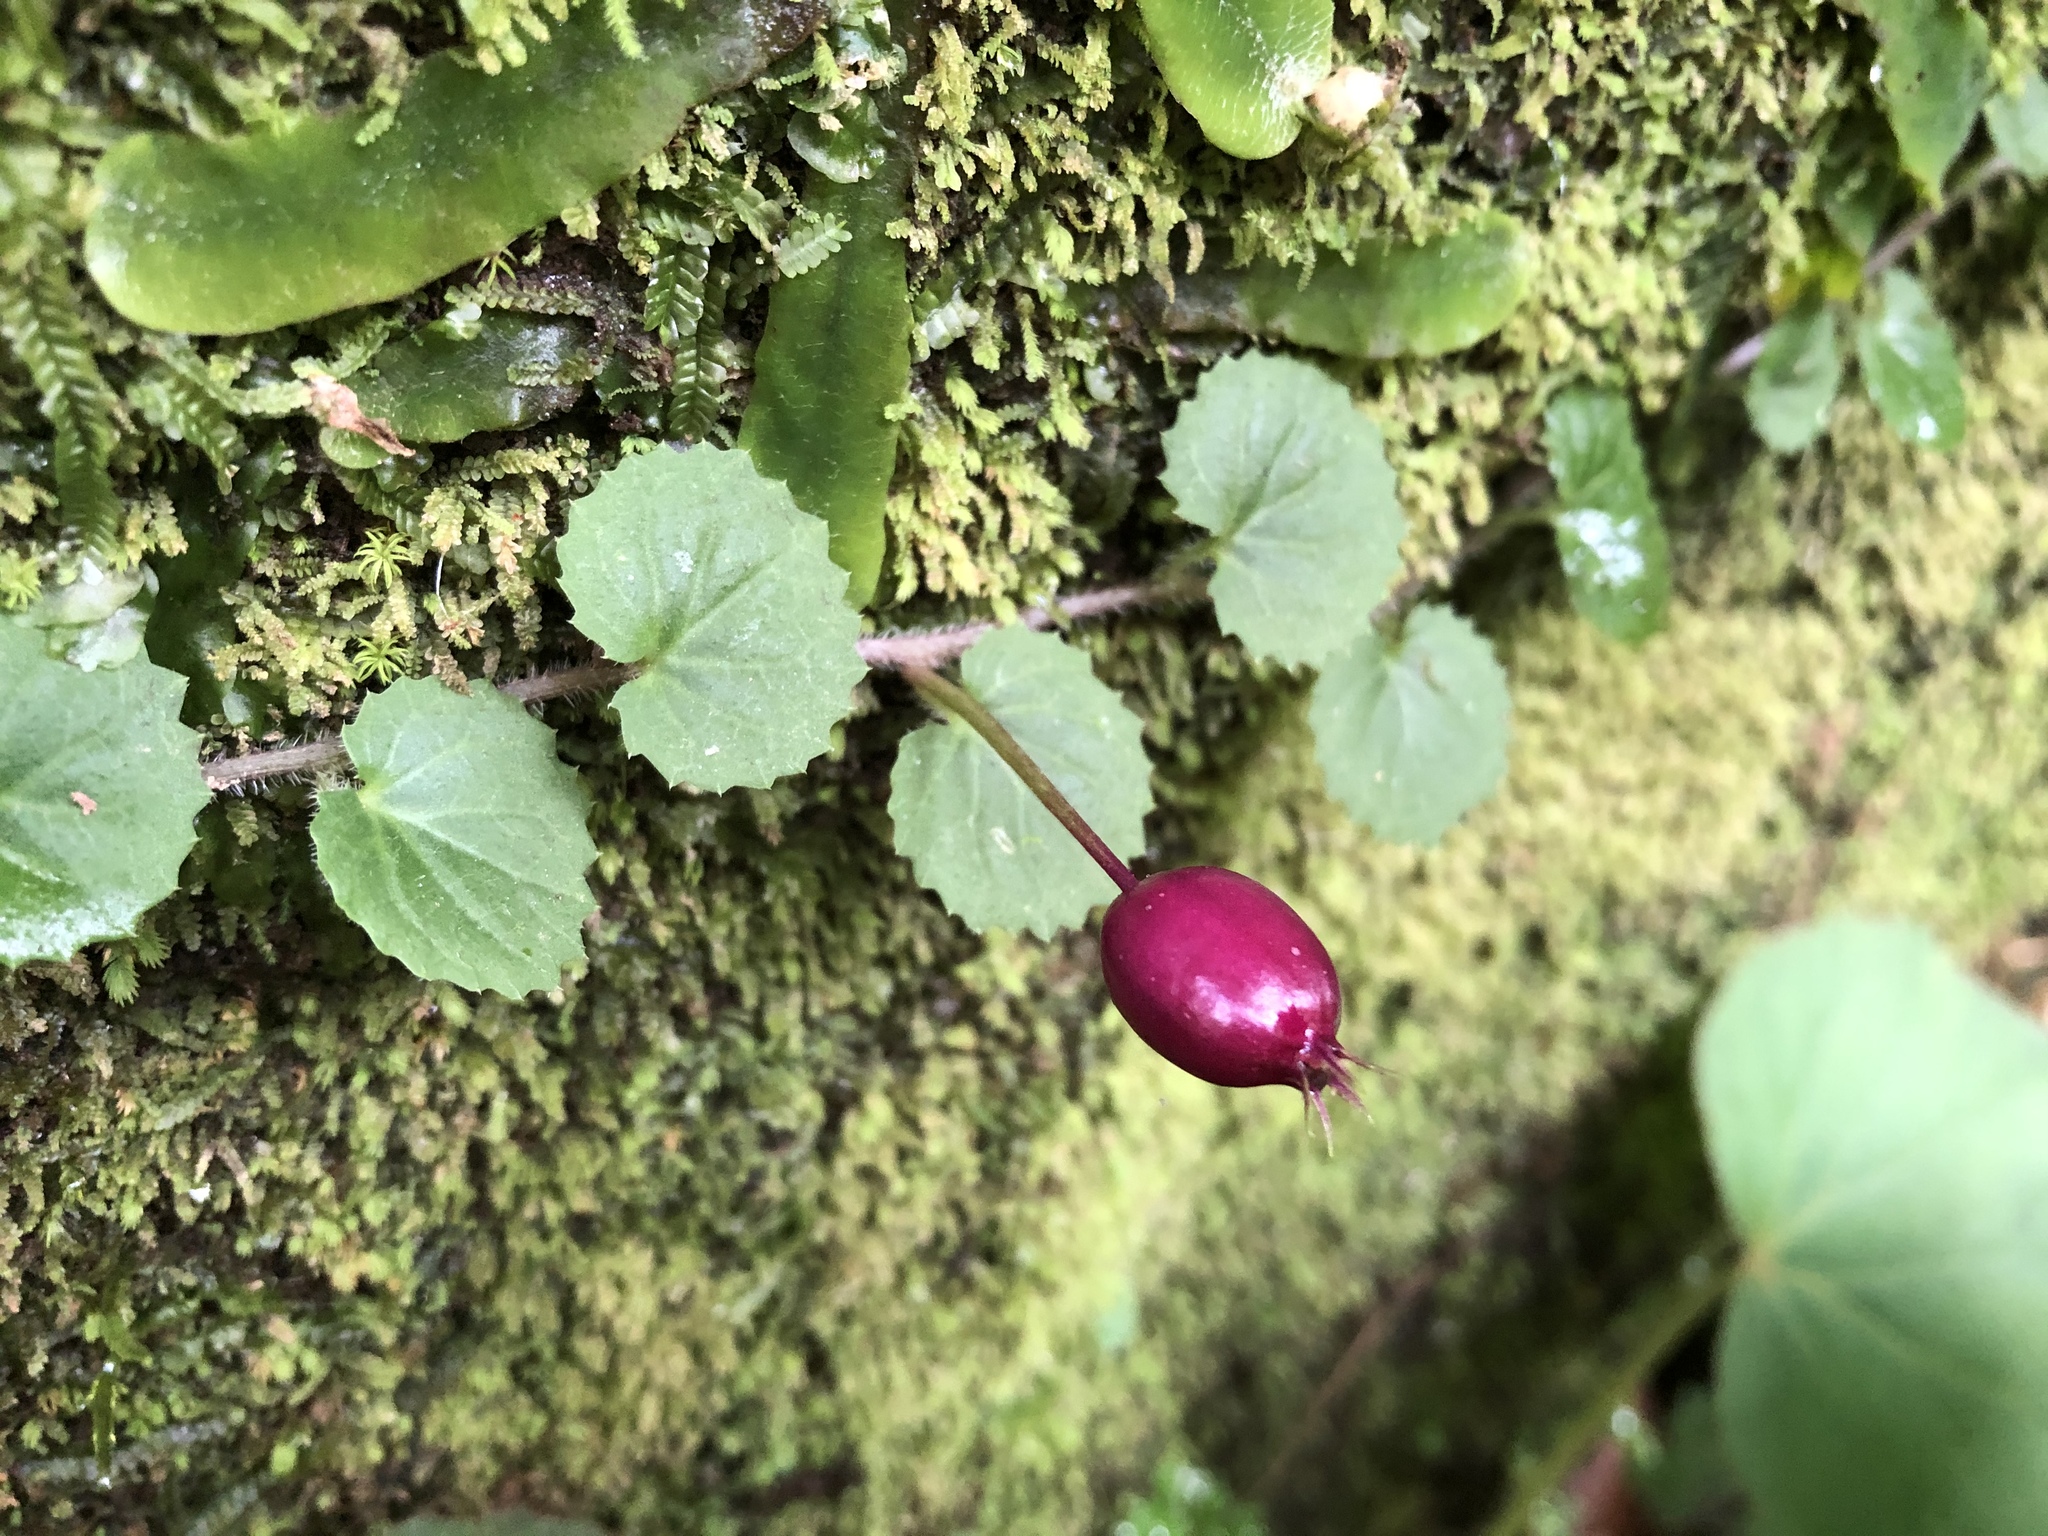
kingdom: Plantae
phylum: Tracheophyta
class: Magnoliopsida
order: Asterales
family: Campanulaceae
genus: Lobelia
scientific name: Lobelia nummularia
